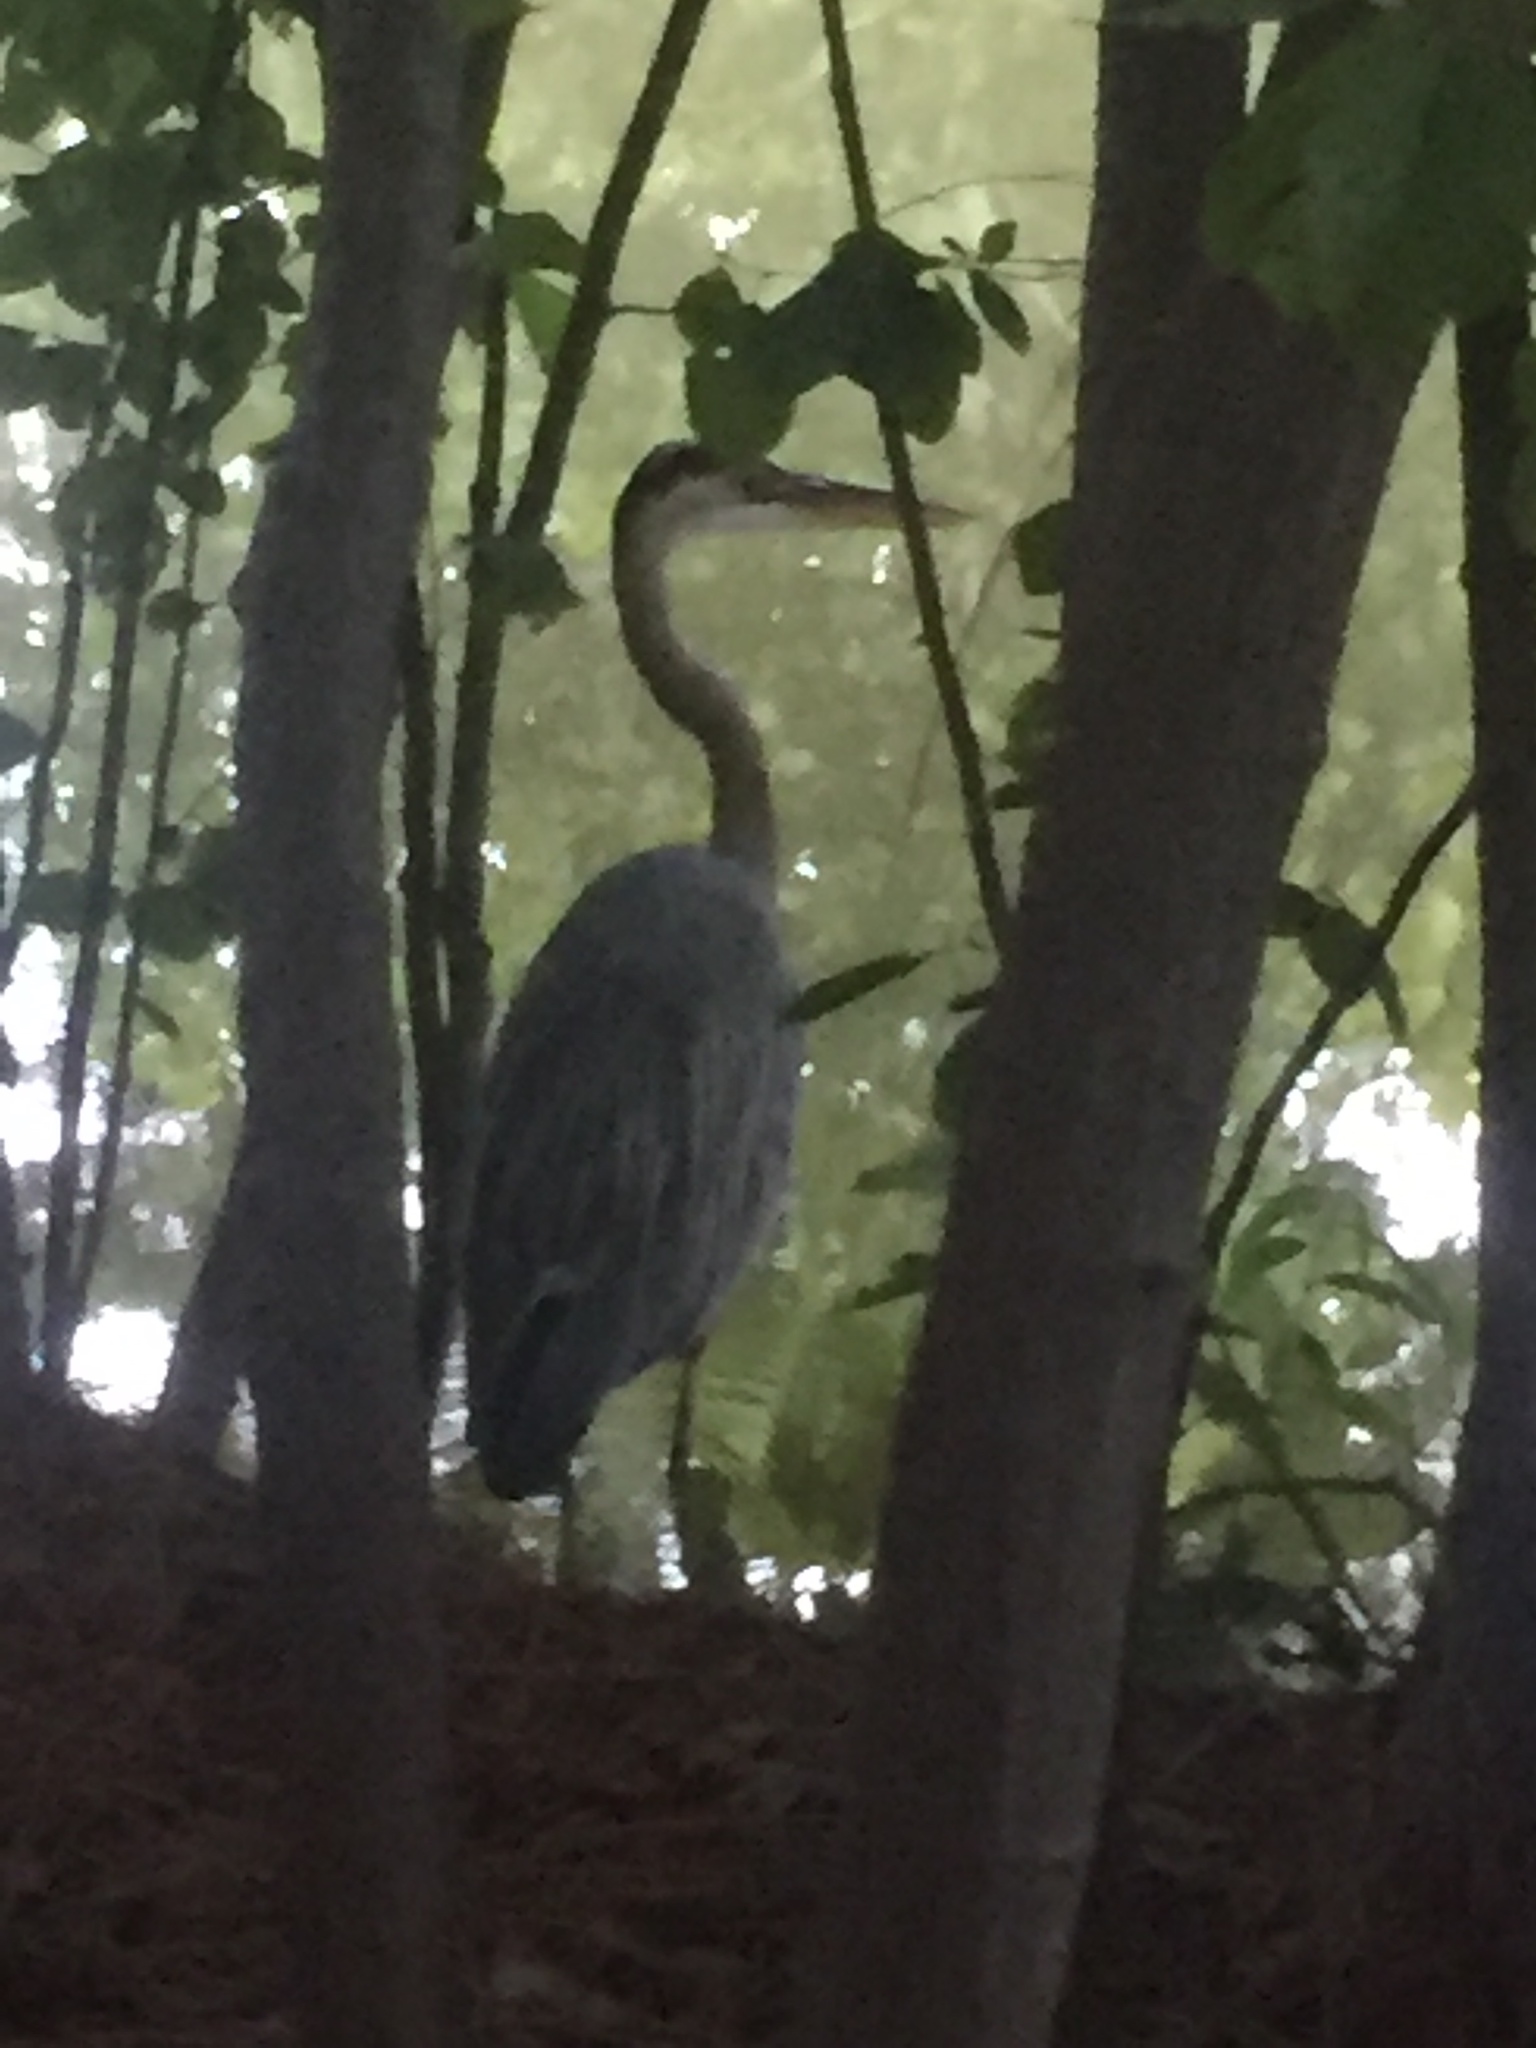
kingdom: Animalia
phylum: Chordata
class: Aves
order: Pelecaniformes
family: Ardeidae
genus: Ardea
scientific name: Ardea herodias
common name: Great blue heron
